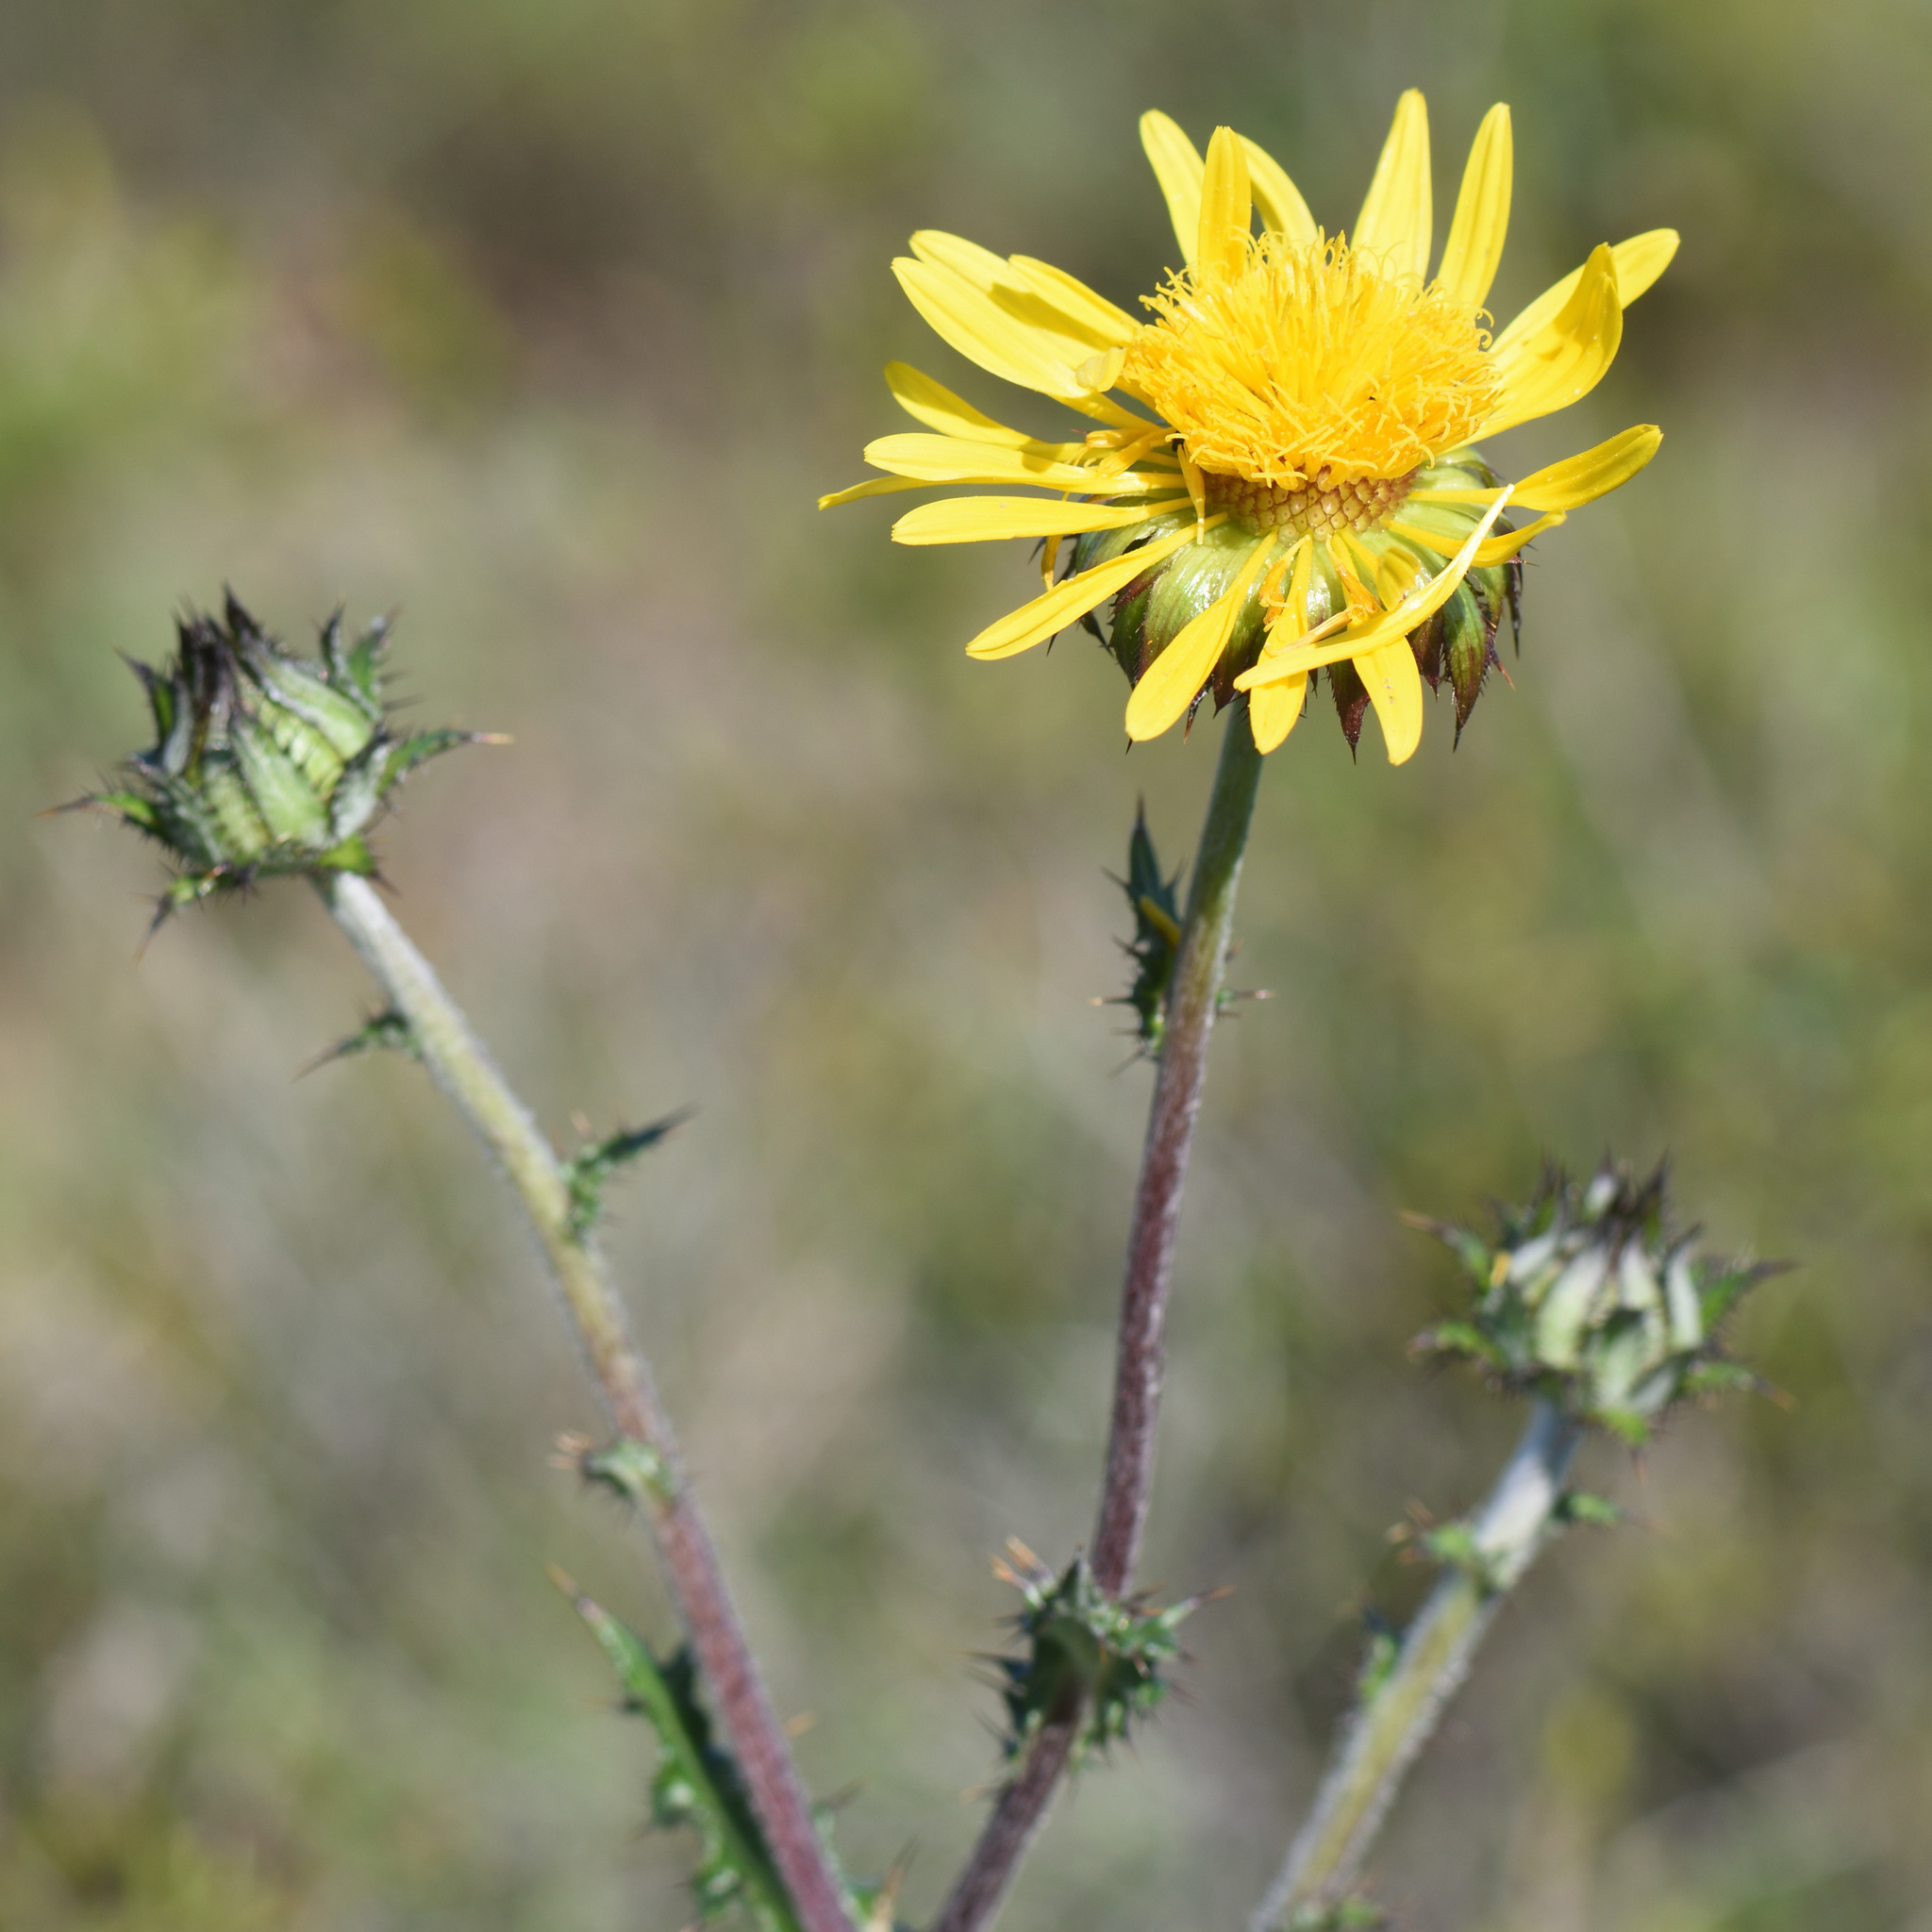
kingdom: Plantae
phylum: Tracheophyta
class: Magnoliopsida
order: Asterales
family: Asteraceae
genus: Berkheya
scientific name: Berkheya decurrens
